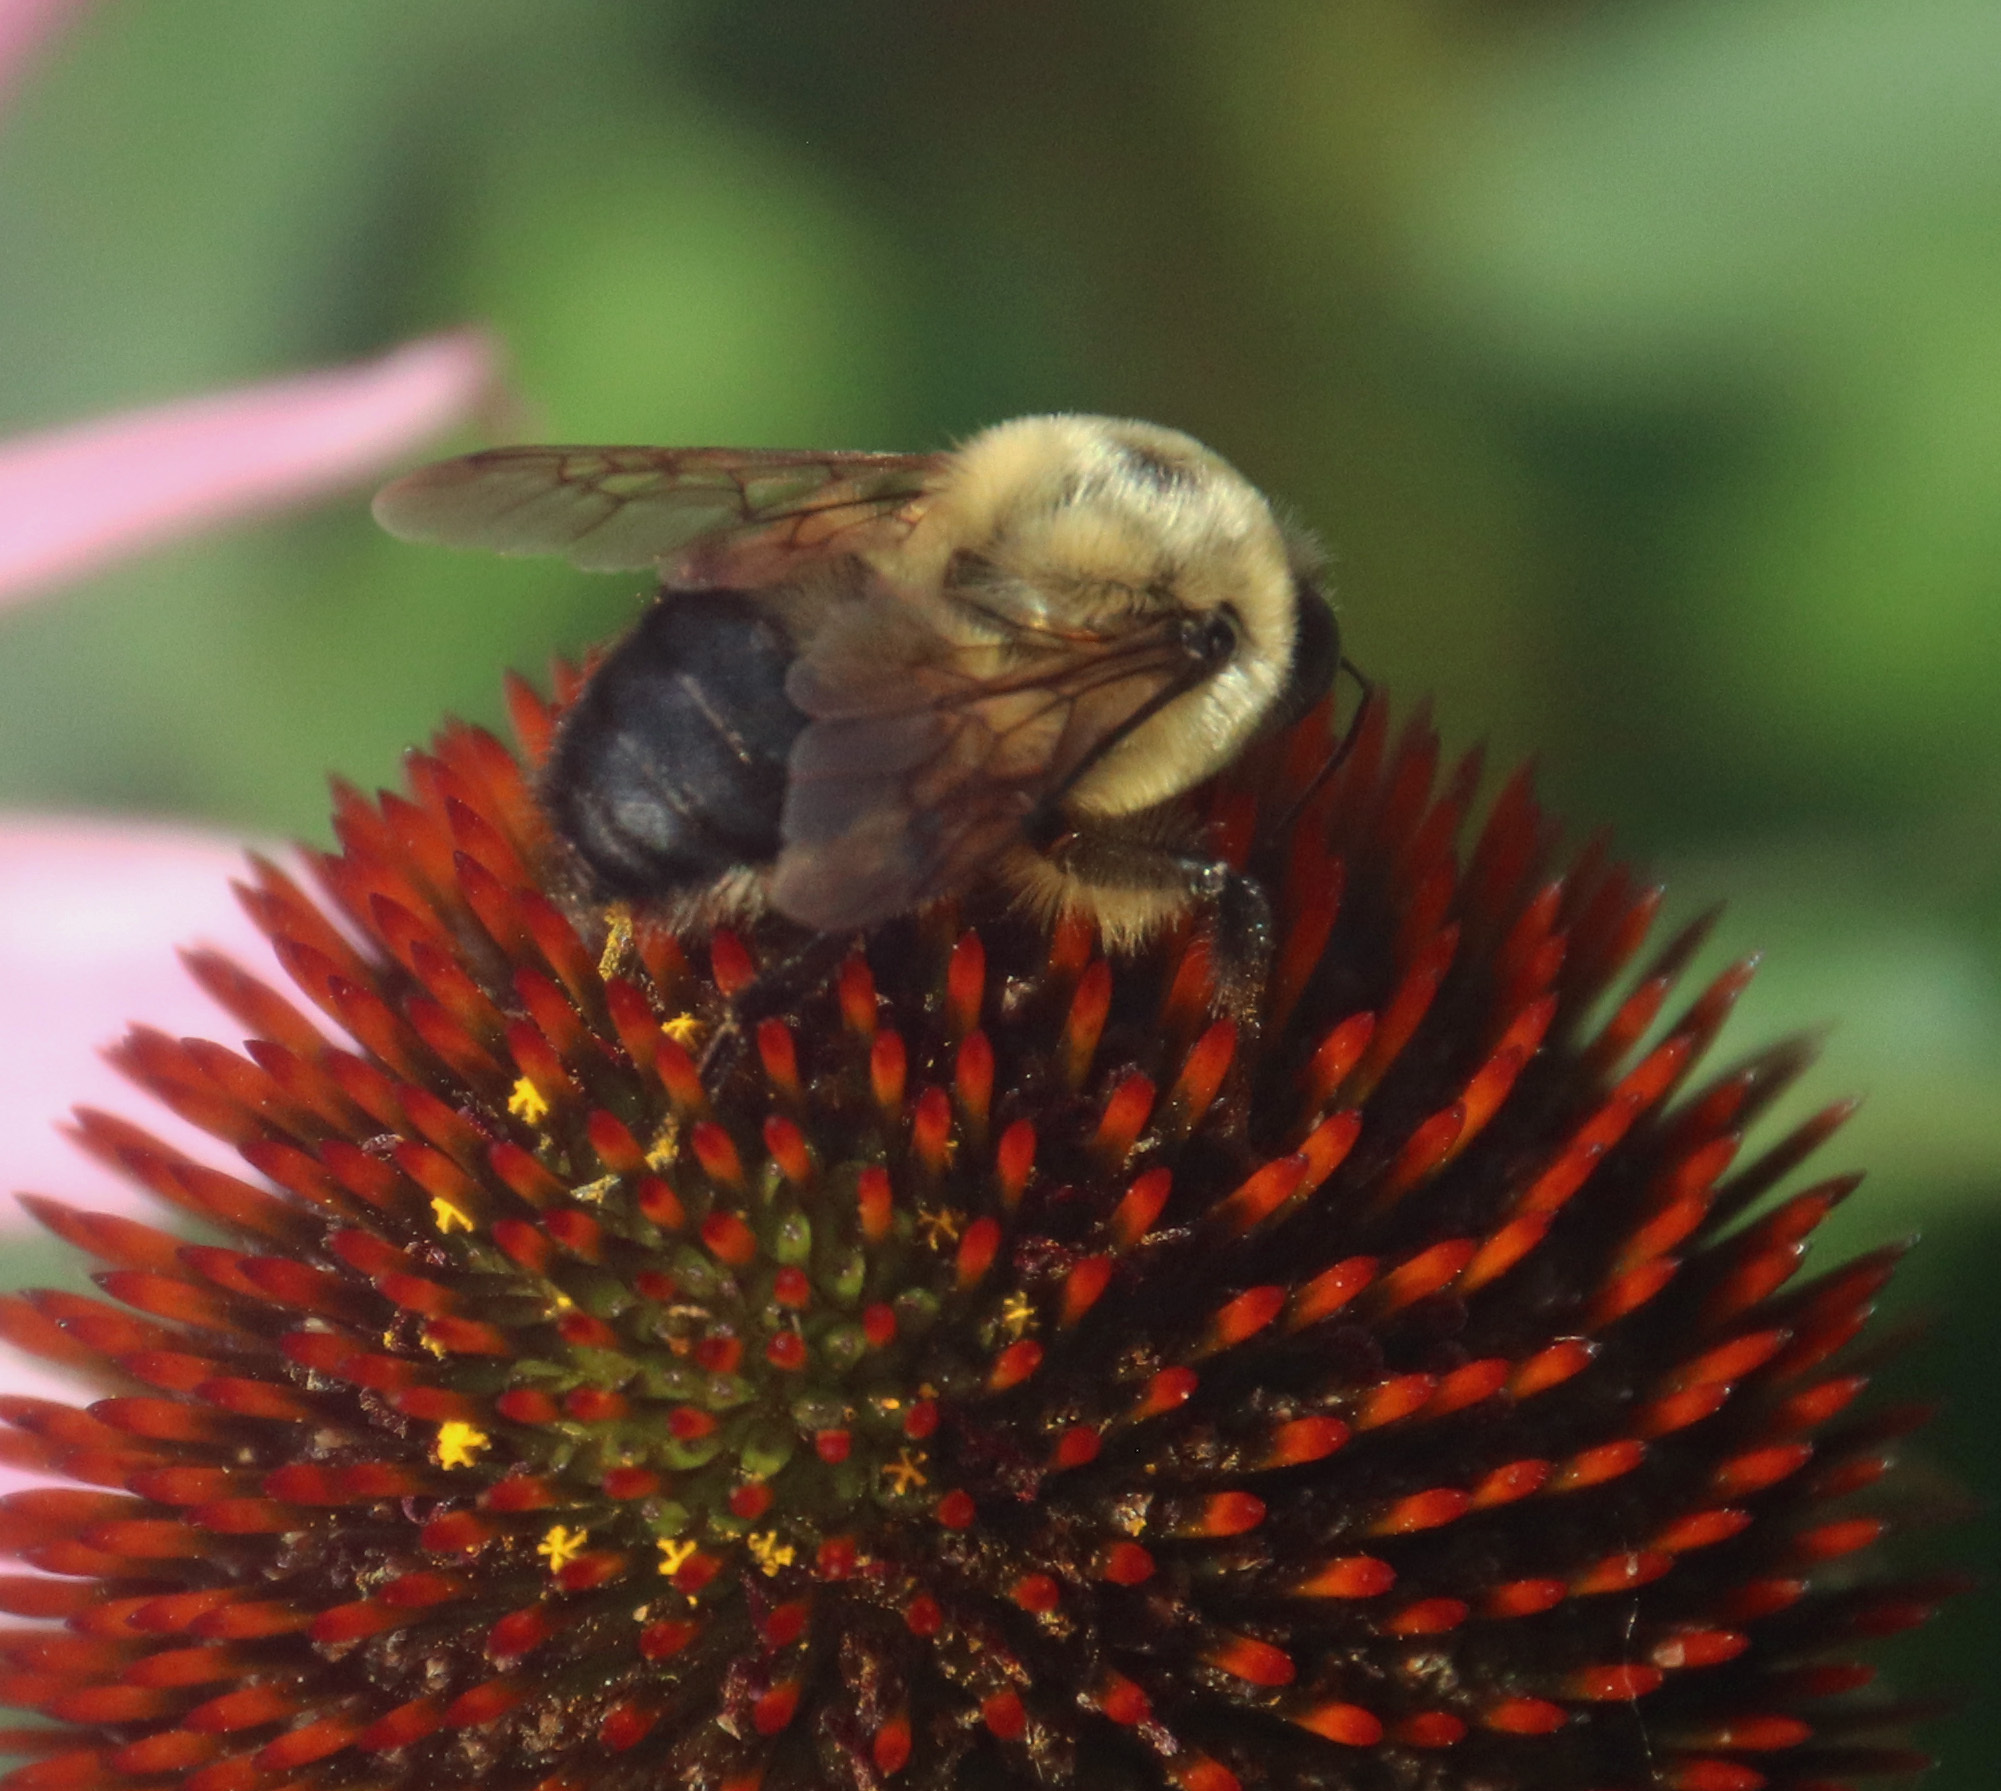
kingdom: Animalia
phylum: Arthropoda
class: Insecta
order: Hymenoptera
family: Apidae
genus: Bombus
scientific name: Bombus griseocollis
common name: Brown-belted bumble bee
